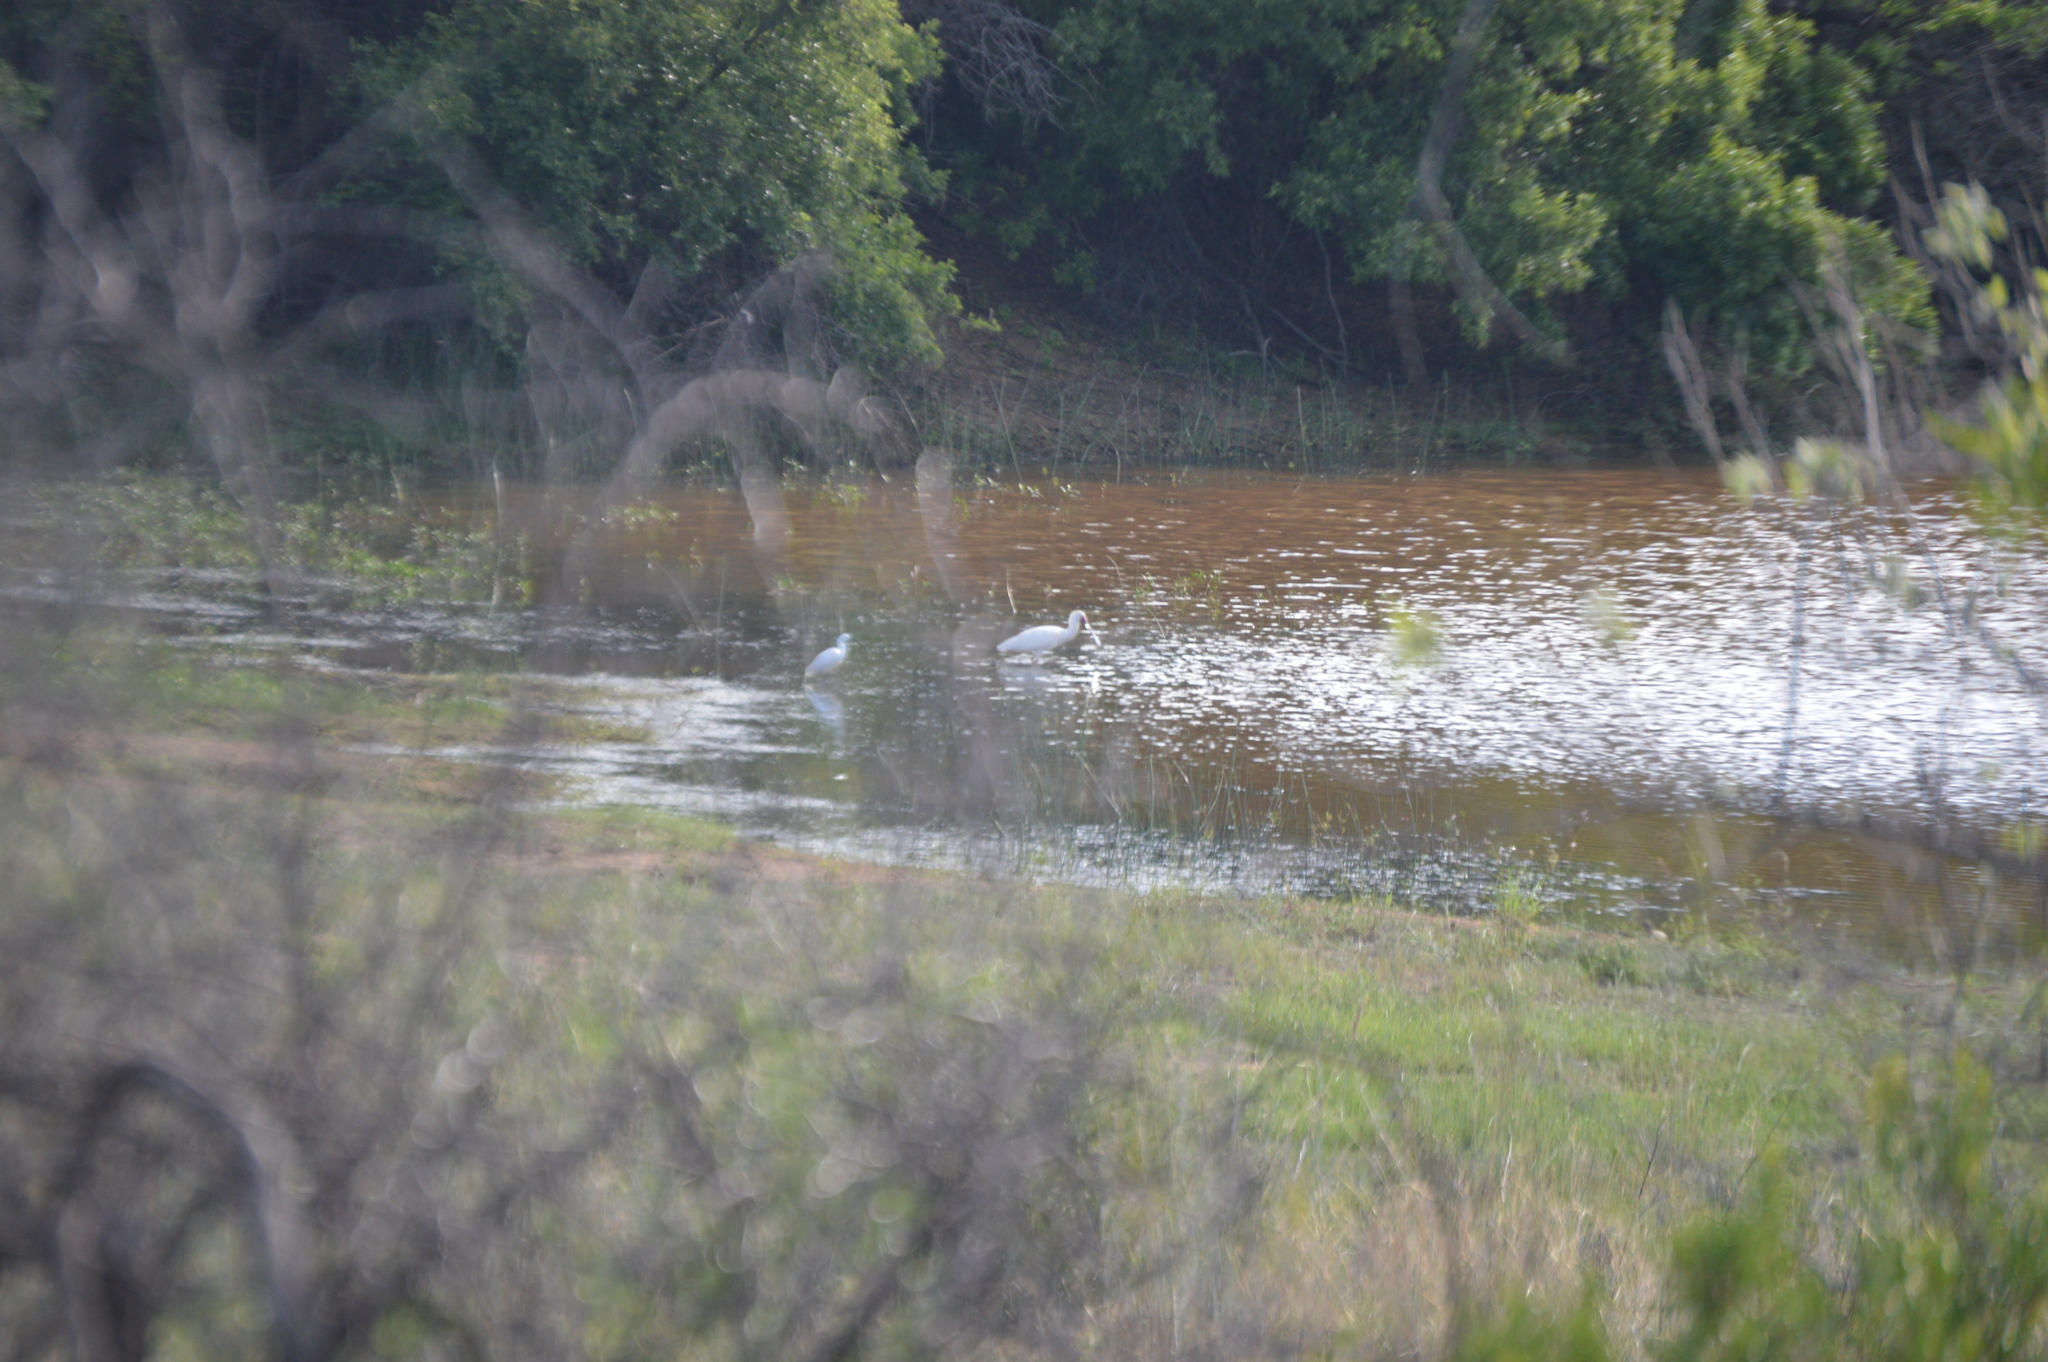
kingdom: Animalia
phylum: Chordata
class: Aves
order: Pelecaniformes
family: Threskiornithidae
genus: Platalea
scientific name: Platalea alba
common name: African spoonbill
